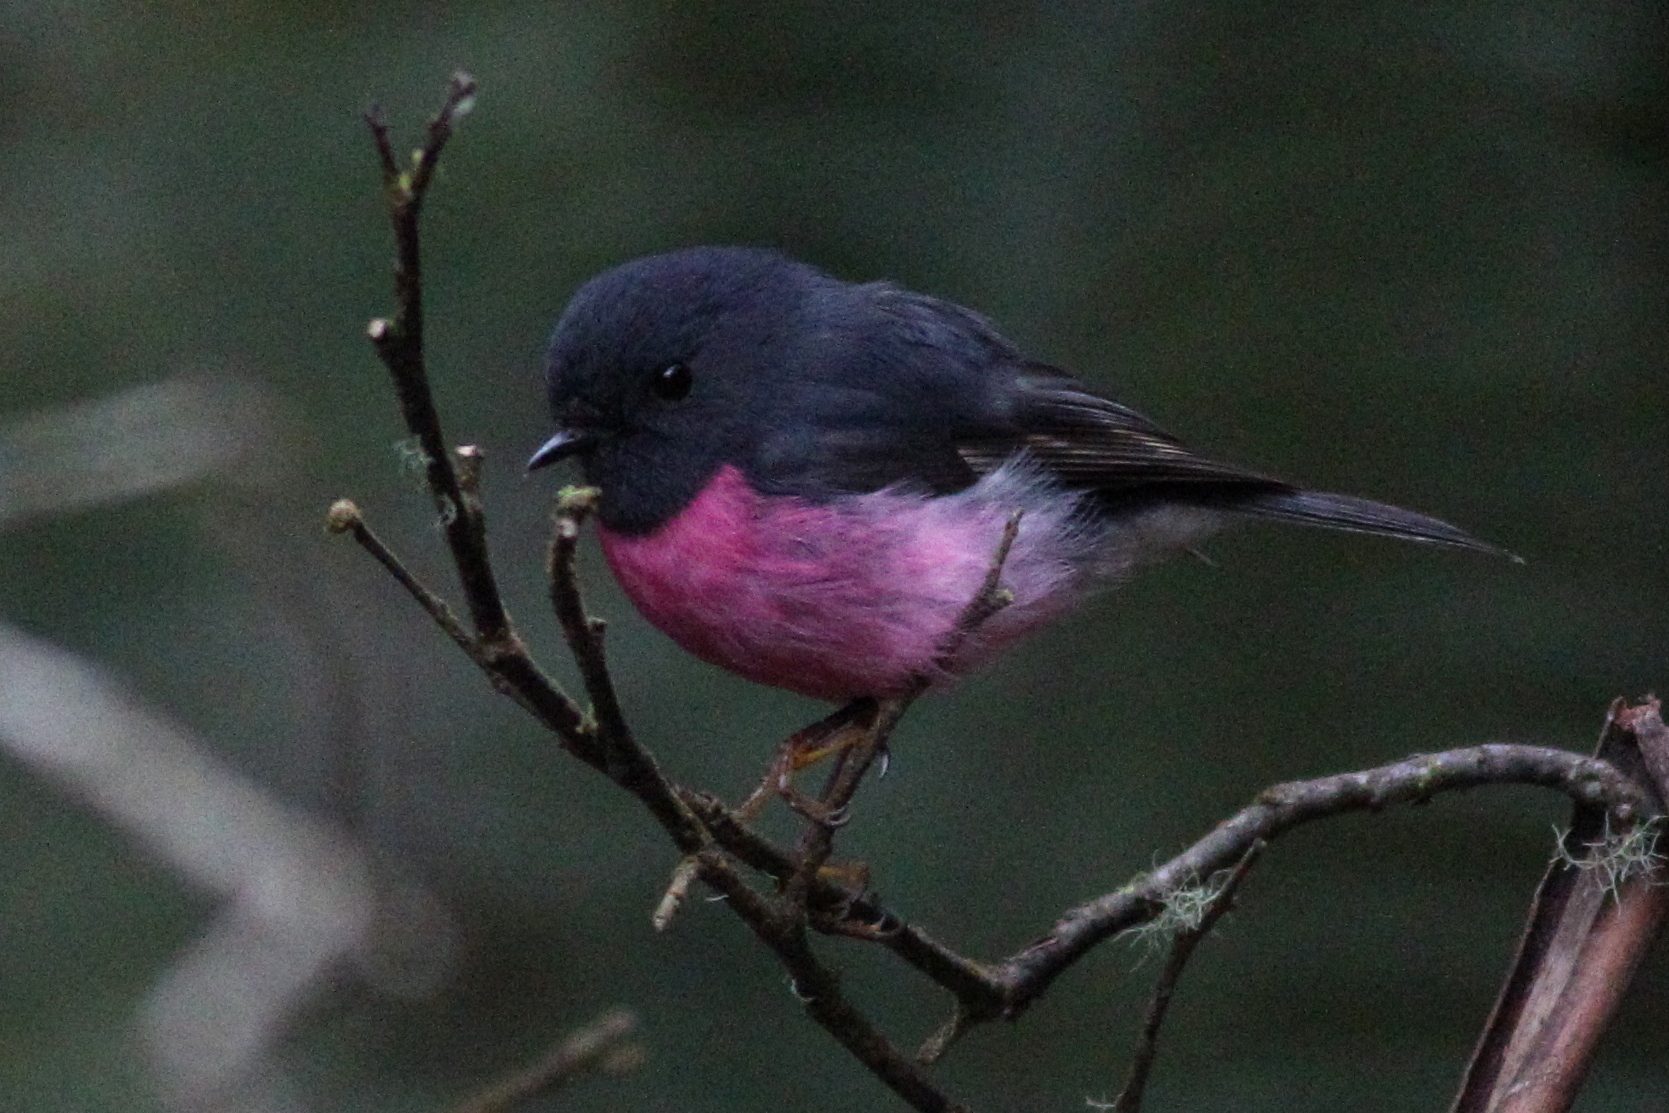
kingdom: Animalia
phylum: Chordata
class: Aves
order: Passeriformes
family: Petroicidae
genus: Petroica
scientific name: Petroica rodinogaster
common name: Pink robin
